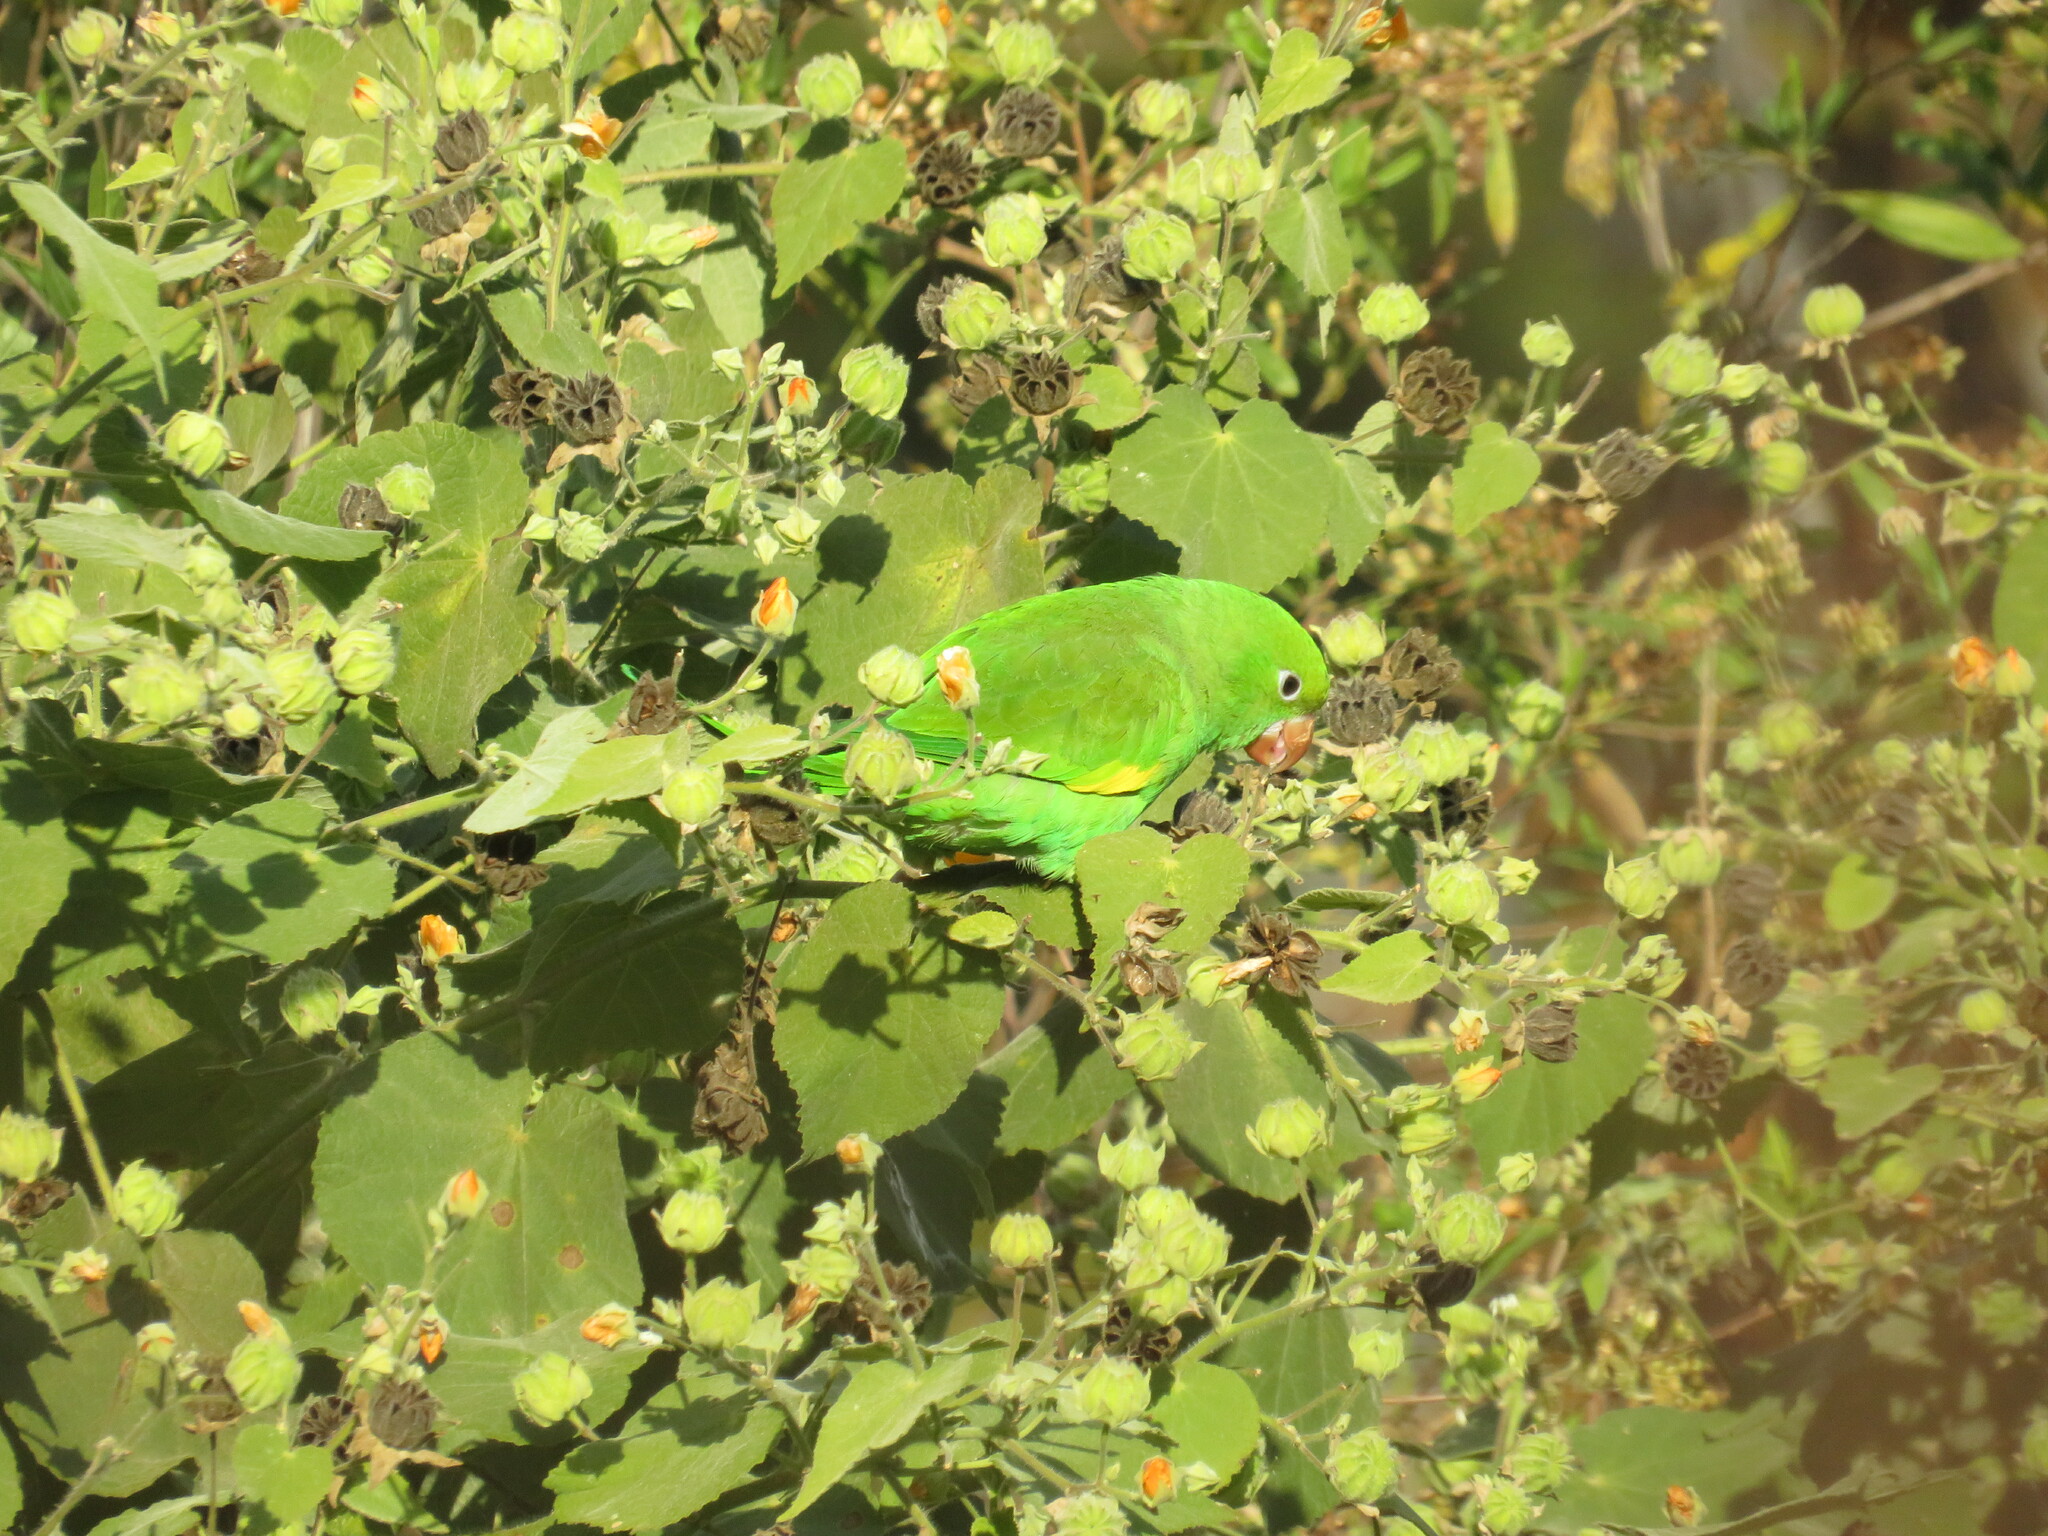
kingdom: Animalia
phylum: Chordata
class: Aves
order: Psittaciformes
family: Psittacidae
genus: Brotogeris
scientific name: Brotogeris chiriri
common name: Yellow-chevroned parakeet
